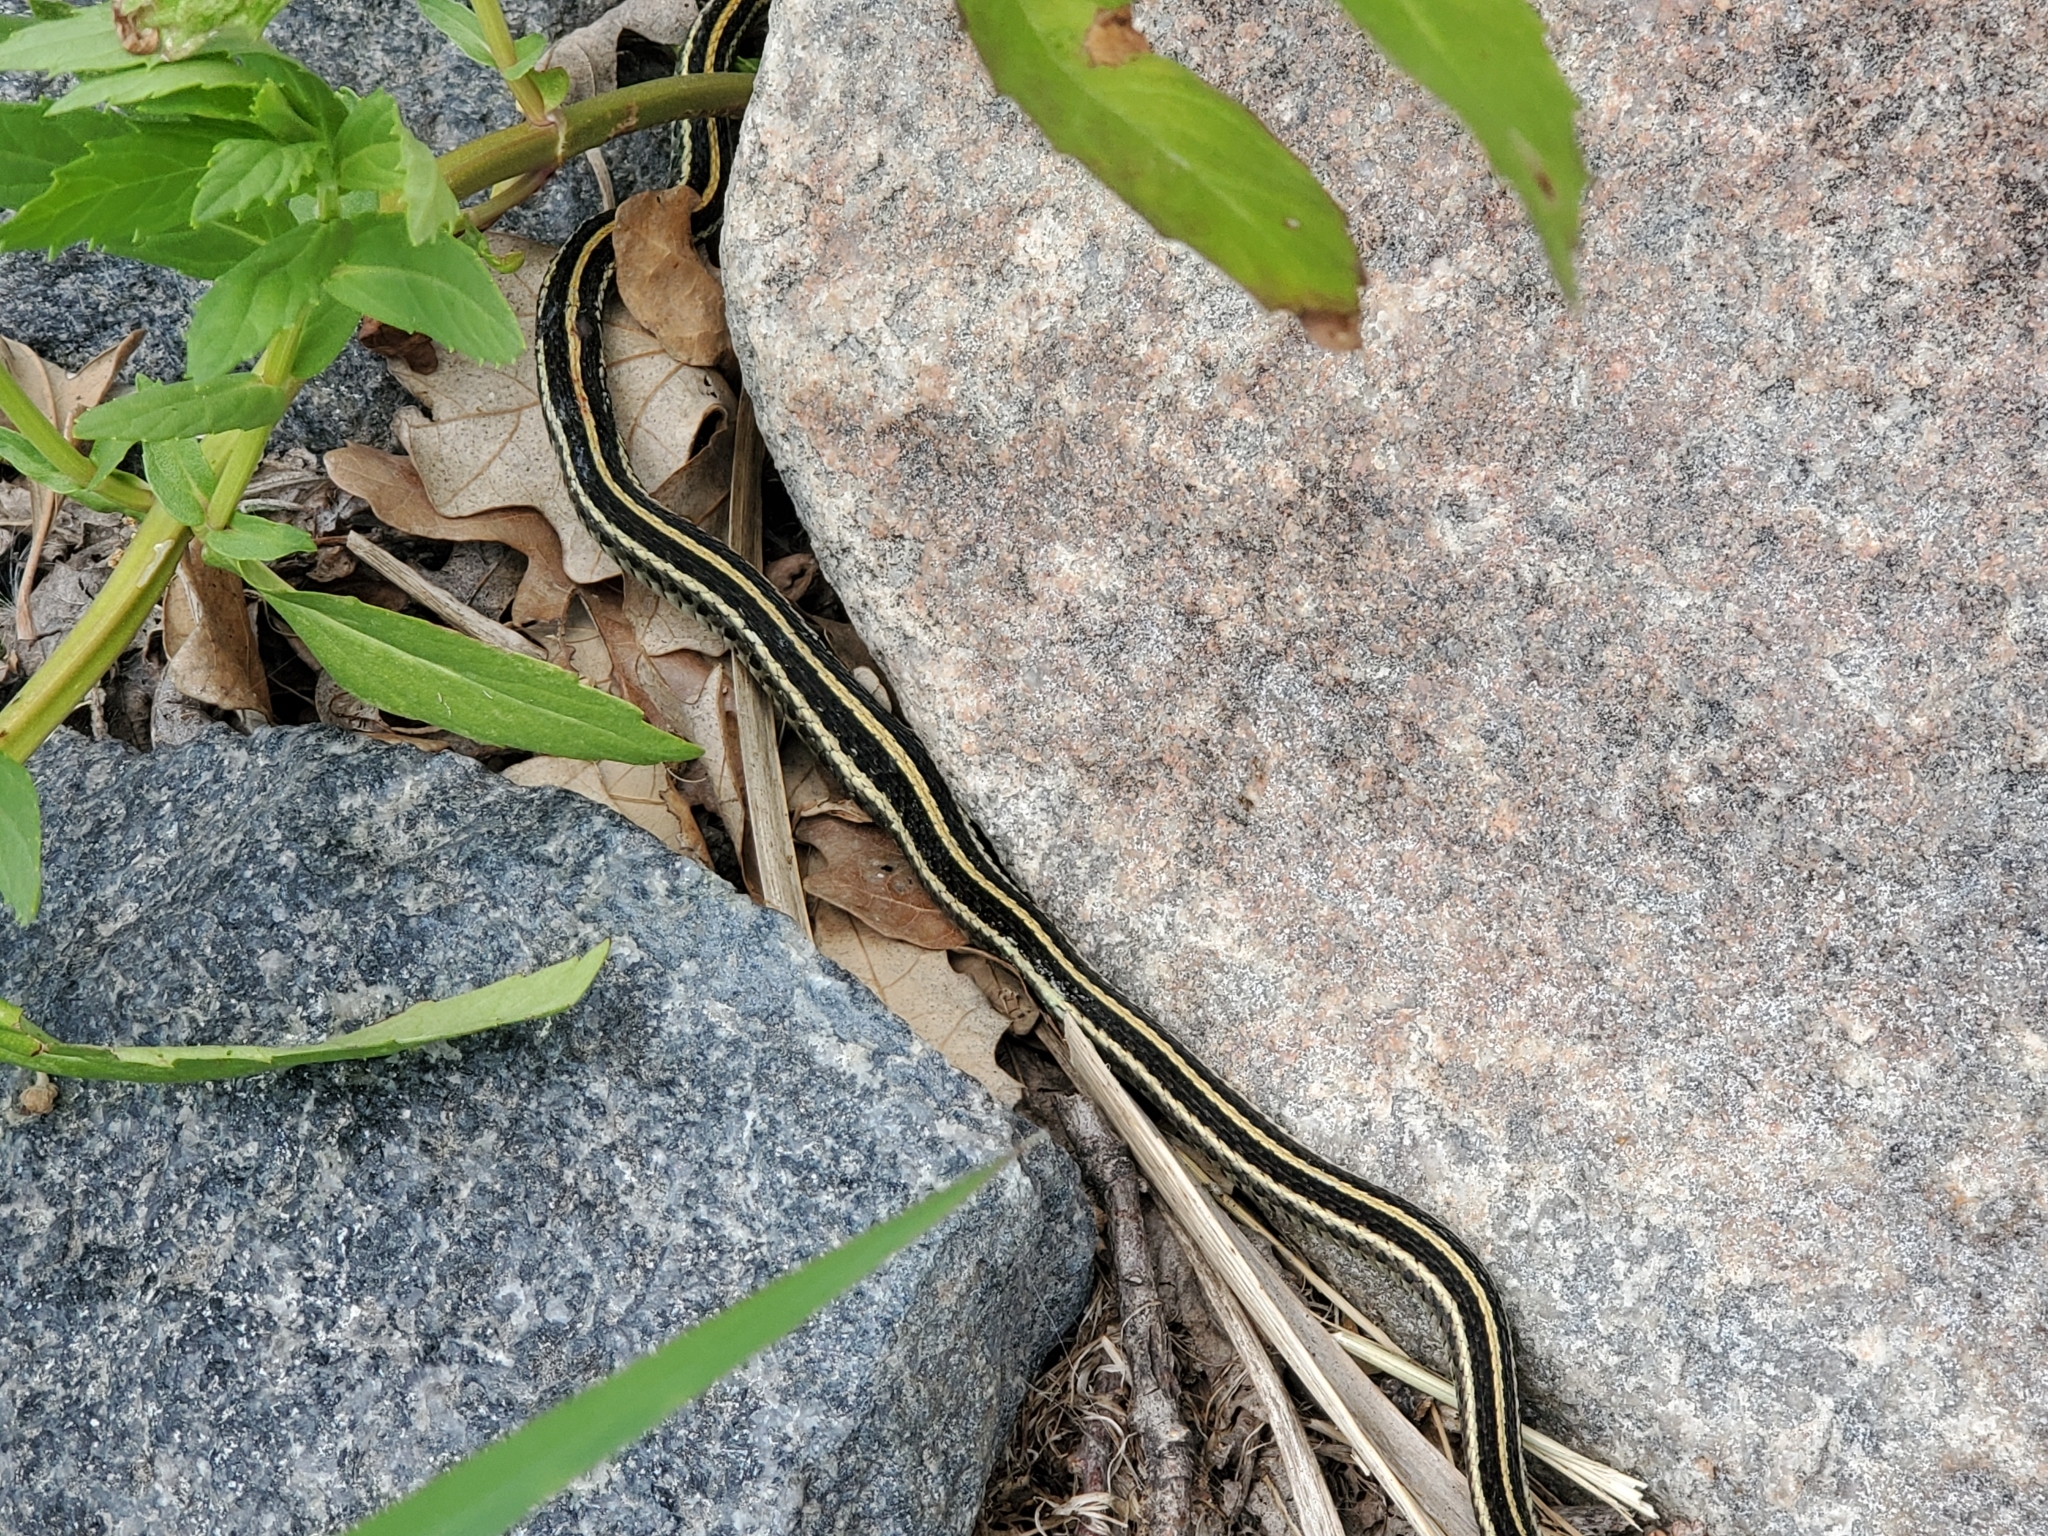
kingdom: Animalia
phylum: Chordata
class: Squamata
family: Colubridae
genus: Thamnophis
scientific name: Thamnophis radix
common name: Plains garter snake
